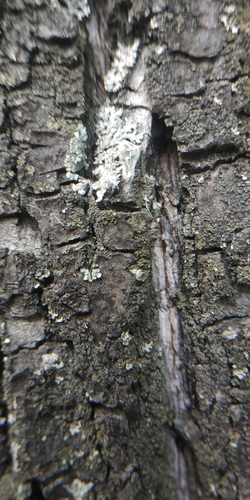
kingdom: Fungi
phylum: Ascomycota
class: Lecanoromycetes
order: Caliciales
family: Physciaceae
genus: Physcia
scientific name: Physcia
